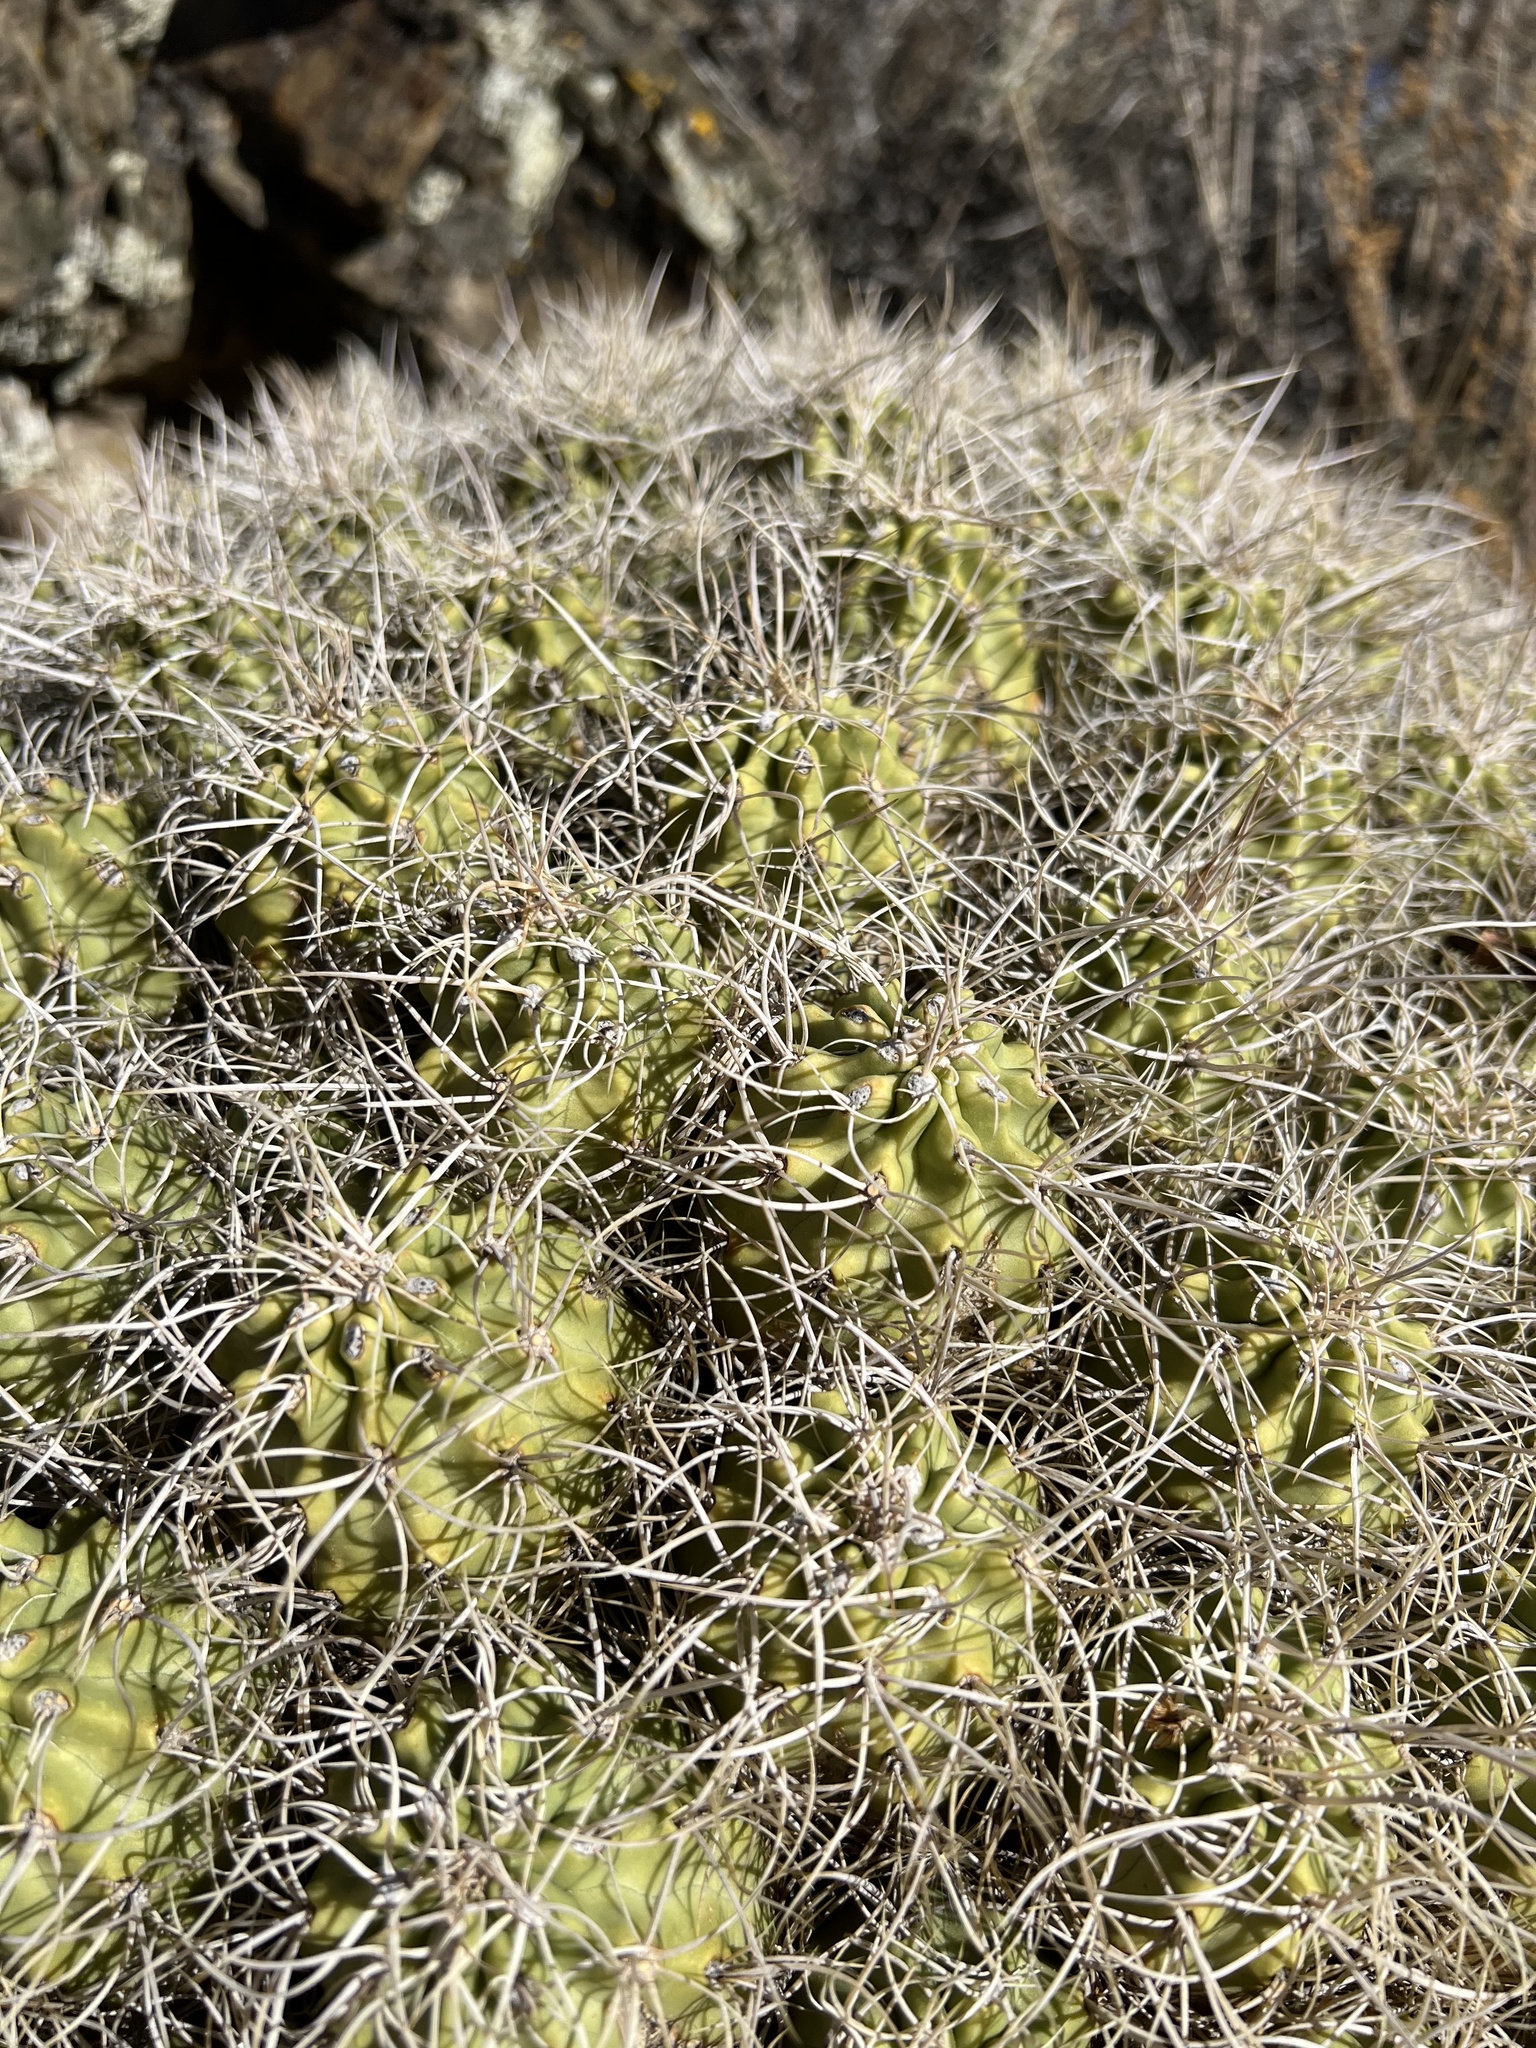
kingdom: Plantae
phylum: Tracheophyta
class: Magnoliopsida
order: Caryophyllales
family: Cactaceae
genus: Echinocereus
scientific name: Echinocereus triglochidiatus
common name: Claretcup hedgehog
